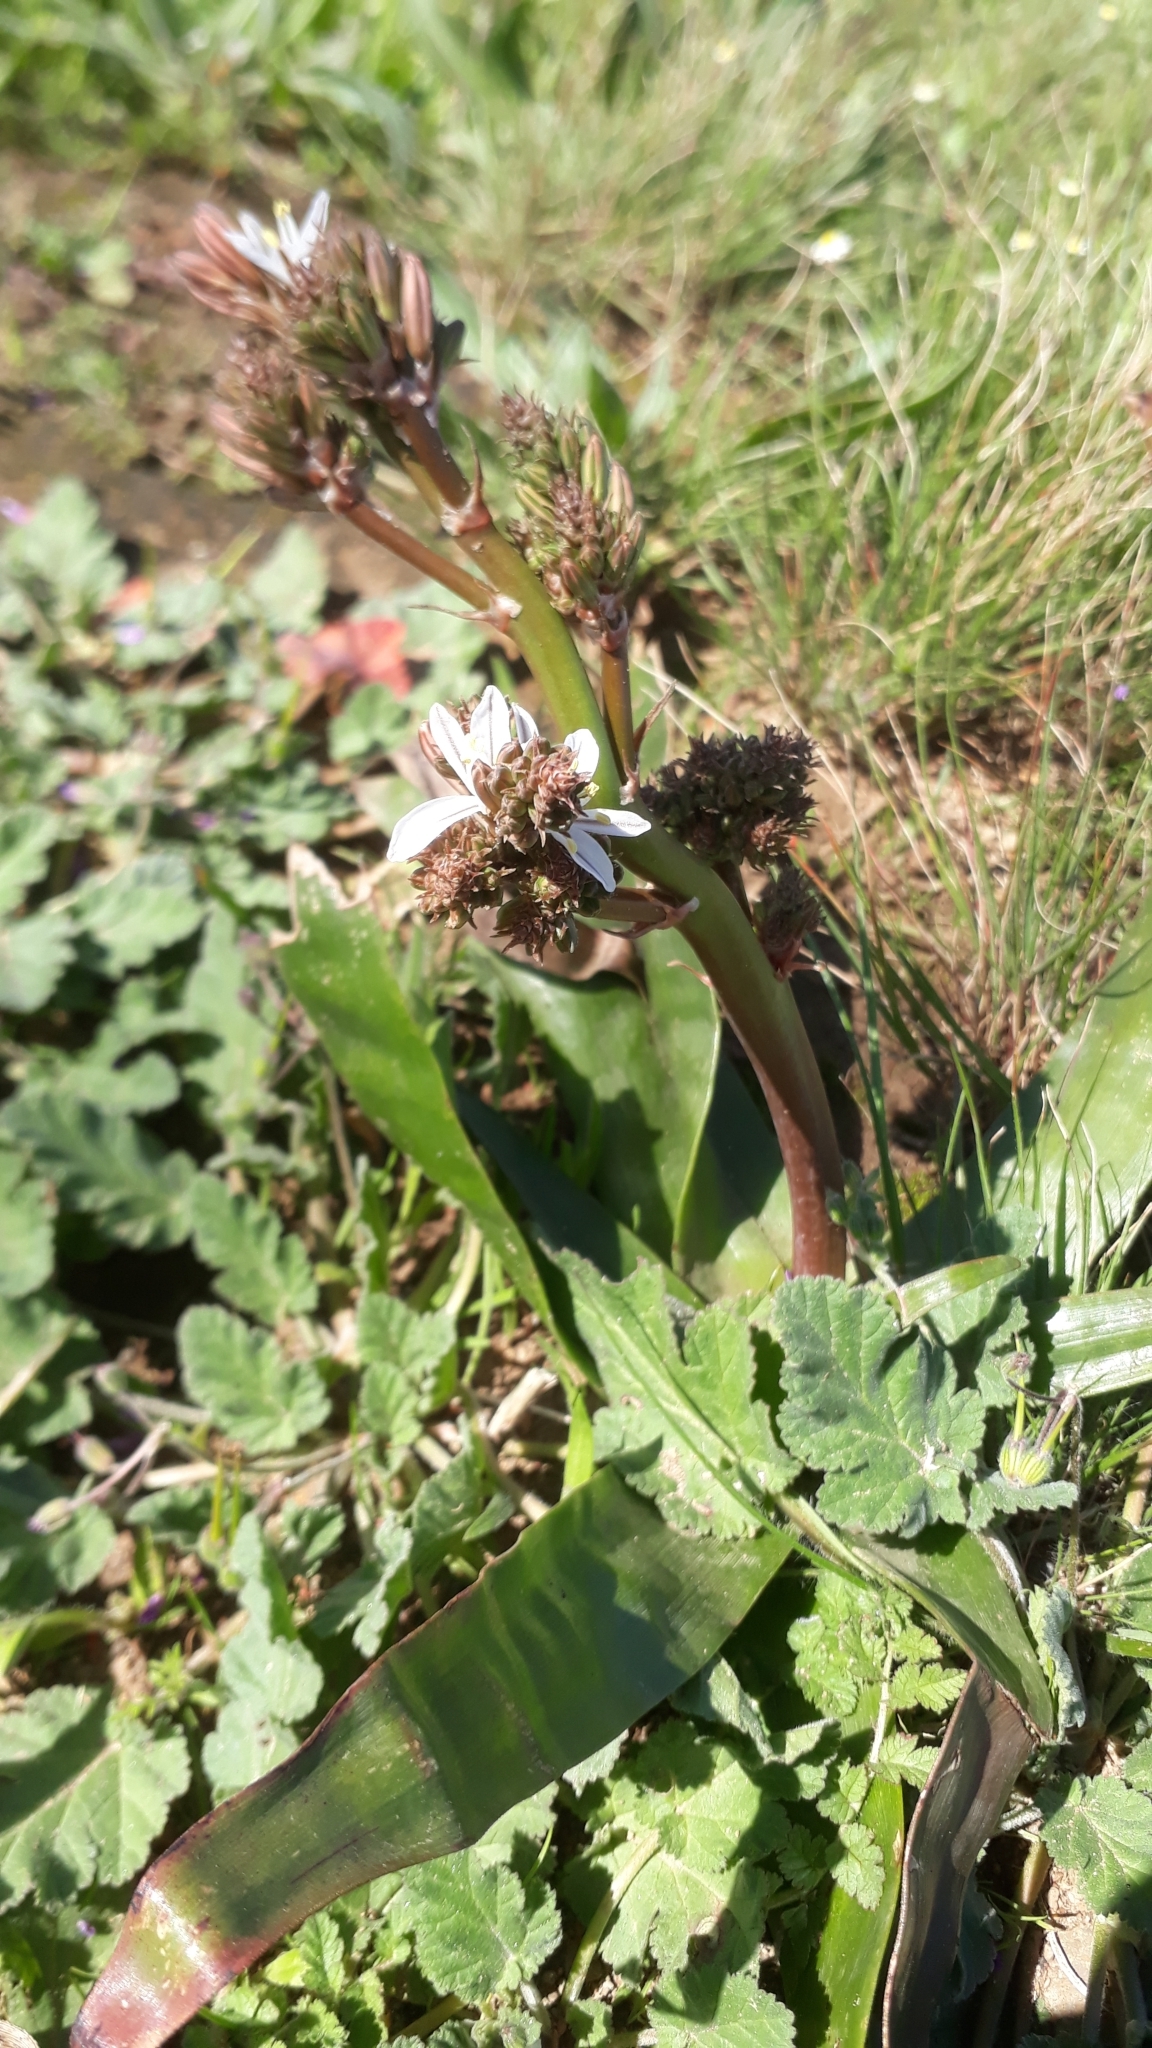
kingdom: Plantae
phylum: Tracheophyta
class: Liliopsida
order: Asparagales
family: Asphodelaceae
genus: Trachyandra
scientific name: Trachyandra muricata
